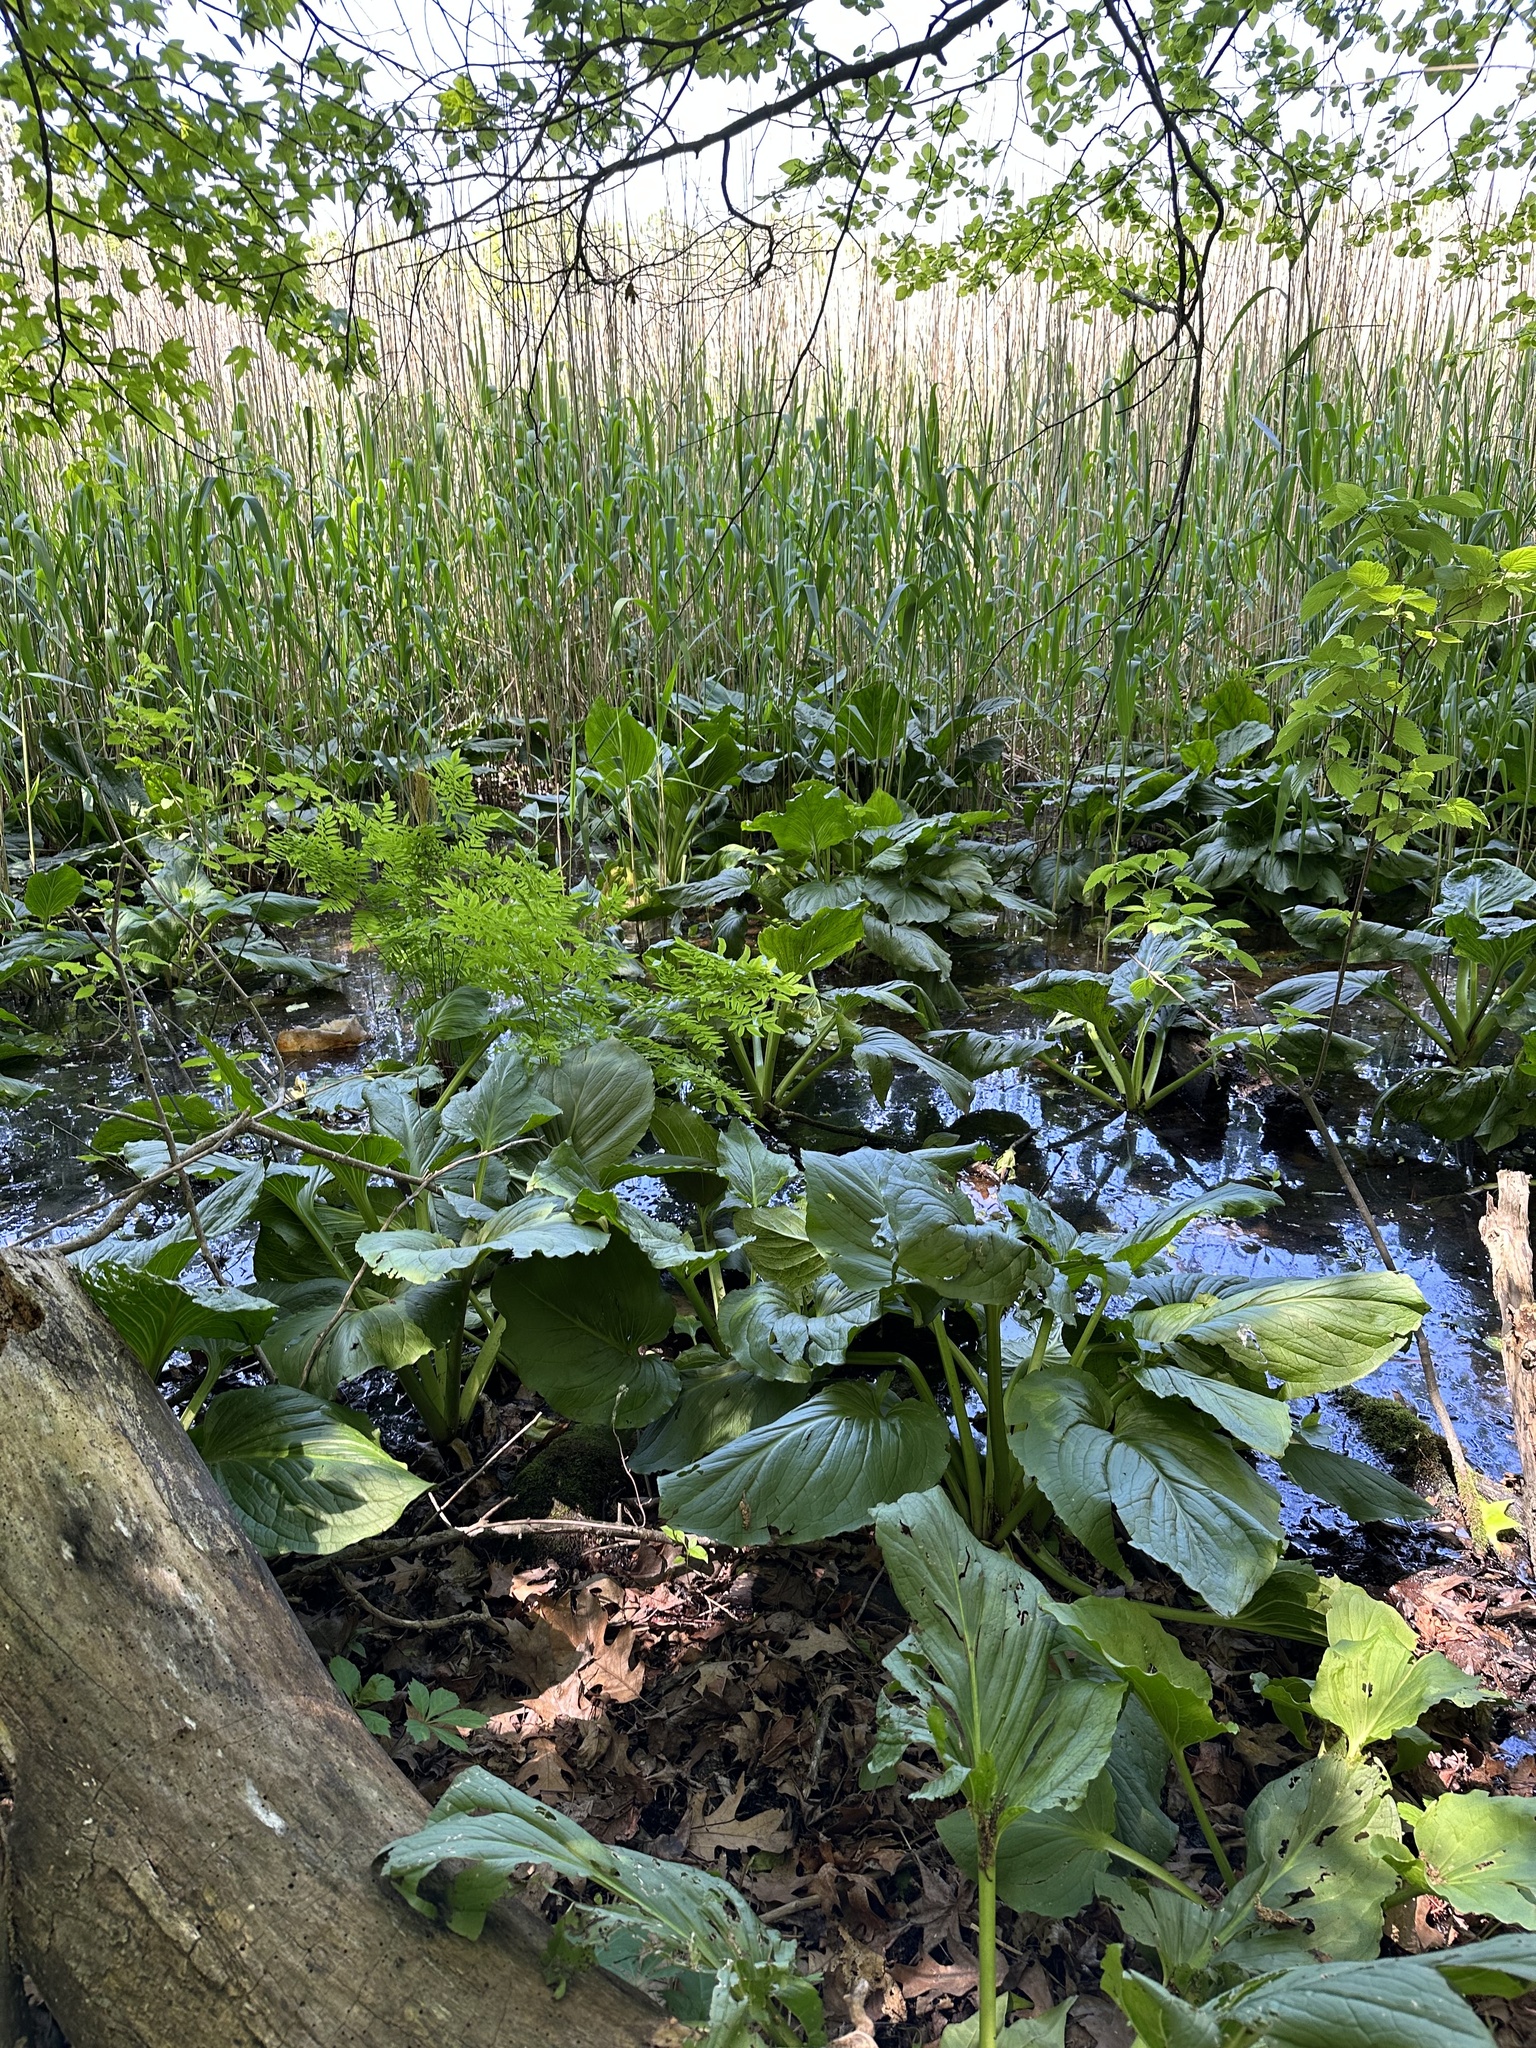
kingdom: Plantae
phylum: Tracheophyta
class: Liliopsida
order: Alismatales
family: Araceae
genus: Symplocarpus
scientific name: Symplocarpus foetidus
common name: Eastern skunk cabbage
